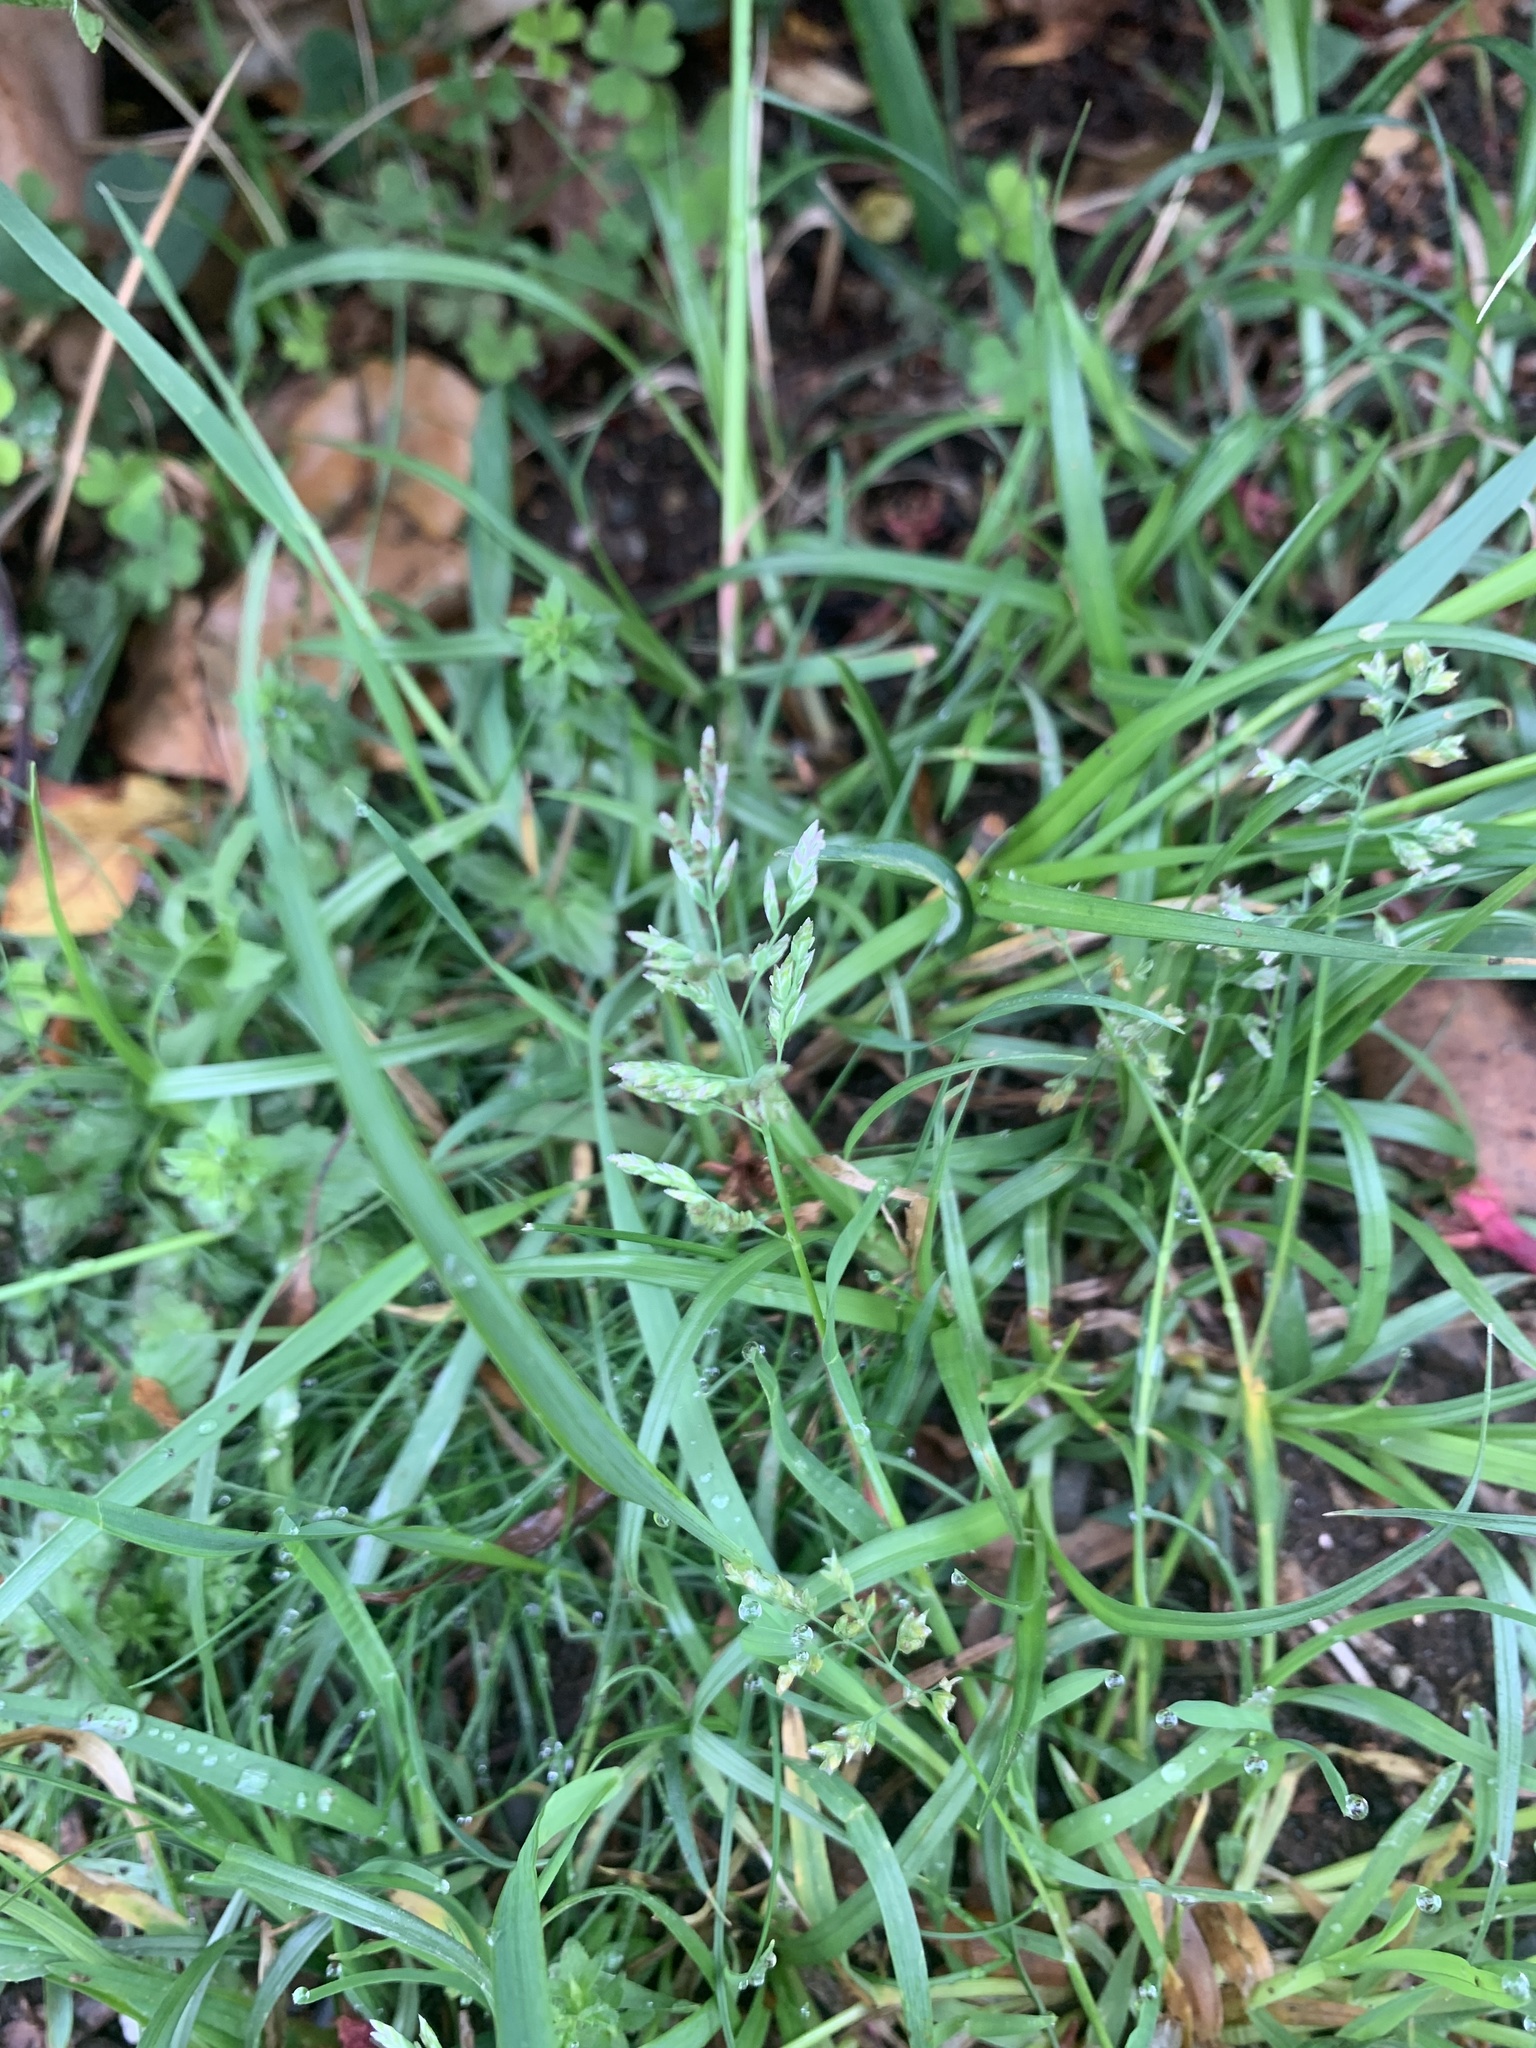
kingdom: Plantae
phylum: Tracheophyta
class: Liliopsida
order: Poales
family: Poaceae
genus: Poa
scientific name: Poa annua
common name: Annual bluegrass
